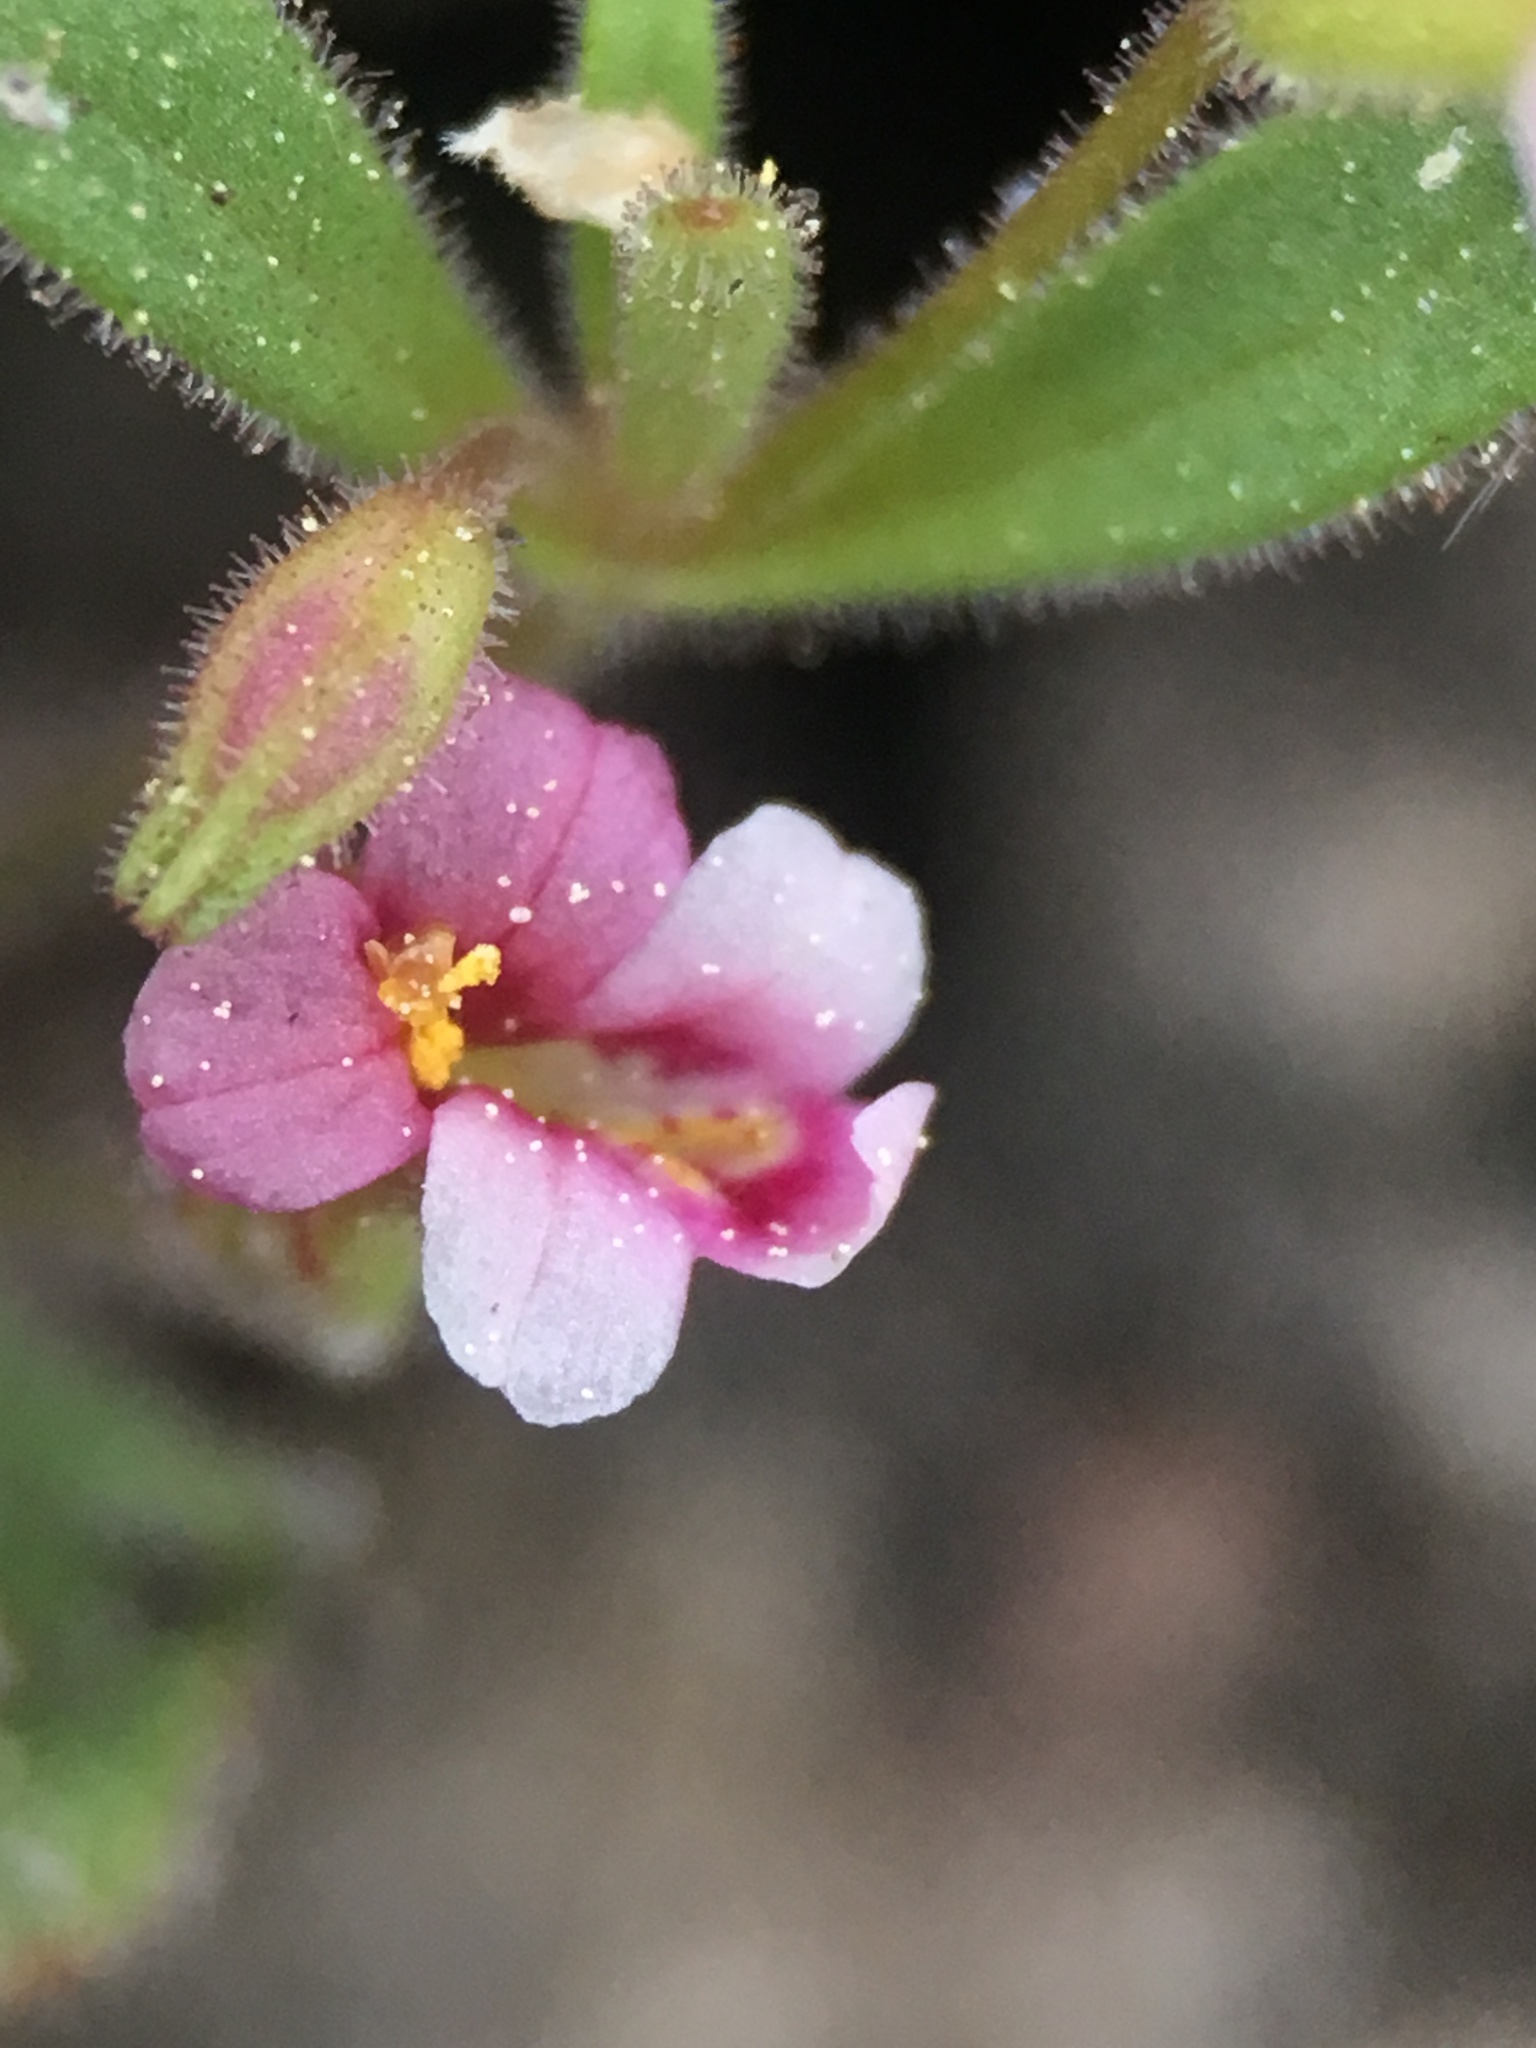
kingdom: Plantae
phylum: Tracheophyta
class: Magnoliopsida
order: Lamiales
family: Phrymaceae
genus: Erythranthe
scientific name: Erythranthe breweri
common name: Brewer's monkeyflower
